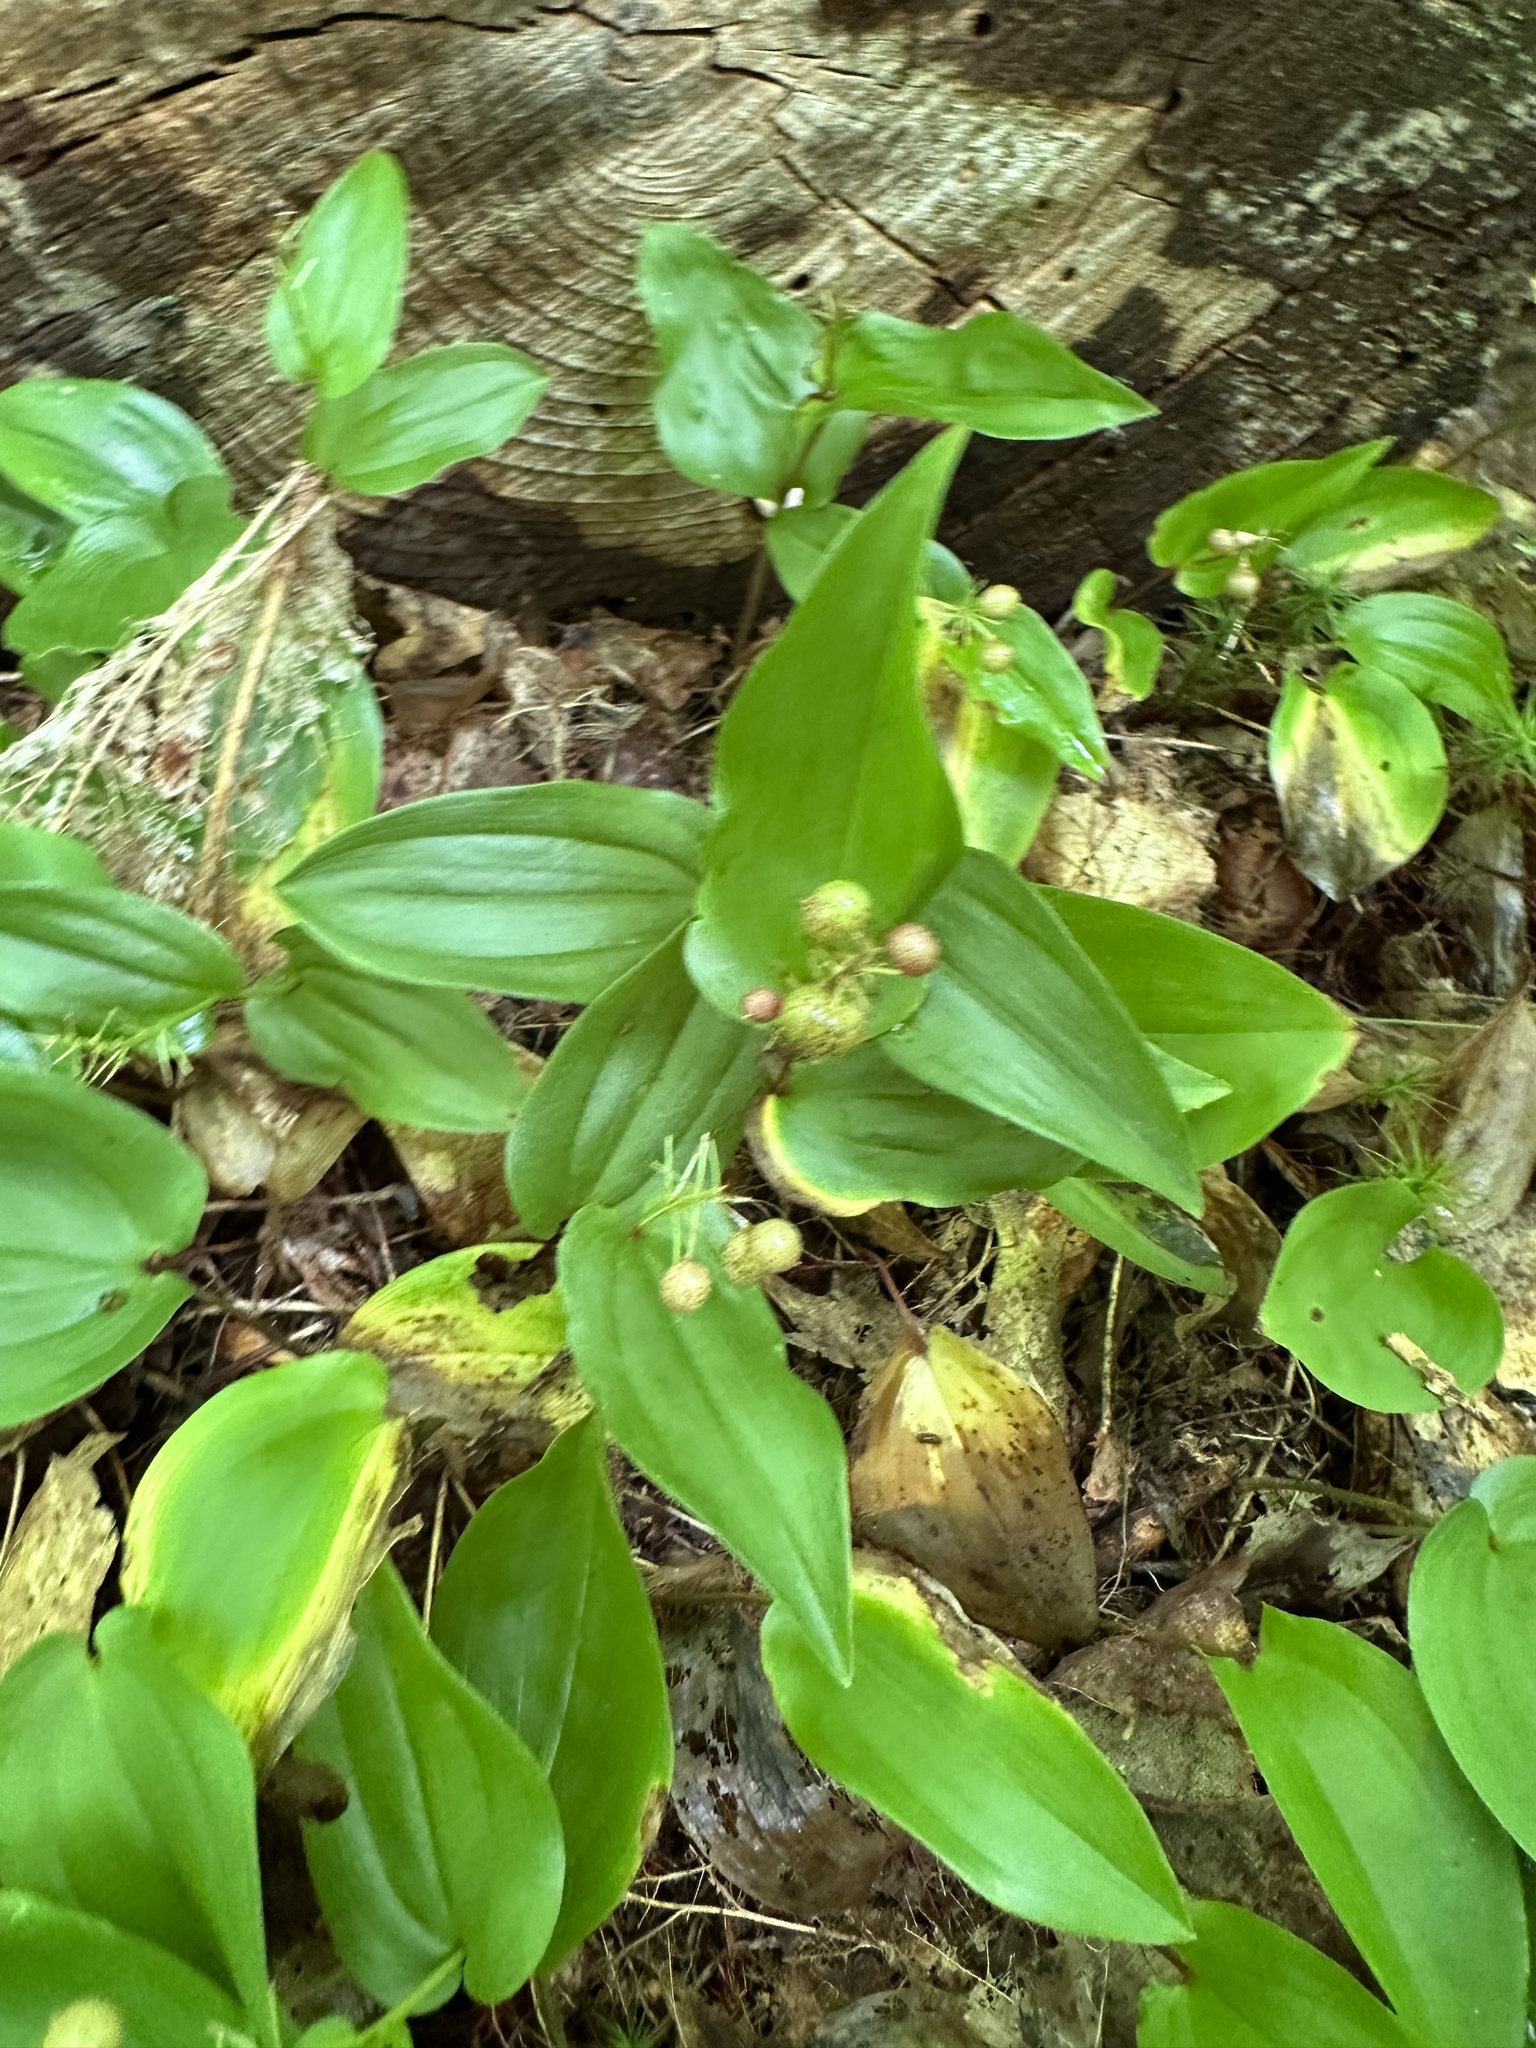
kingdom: Plantae
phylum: Tracheophyta
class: Liliopsida
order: Asparagales
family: Asparagaceae
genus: Maianthemum
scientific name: Maianthemum canadense
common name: False lily-of-the-valley
